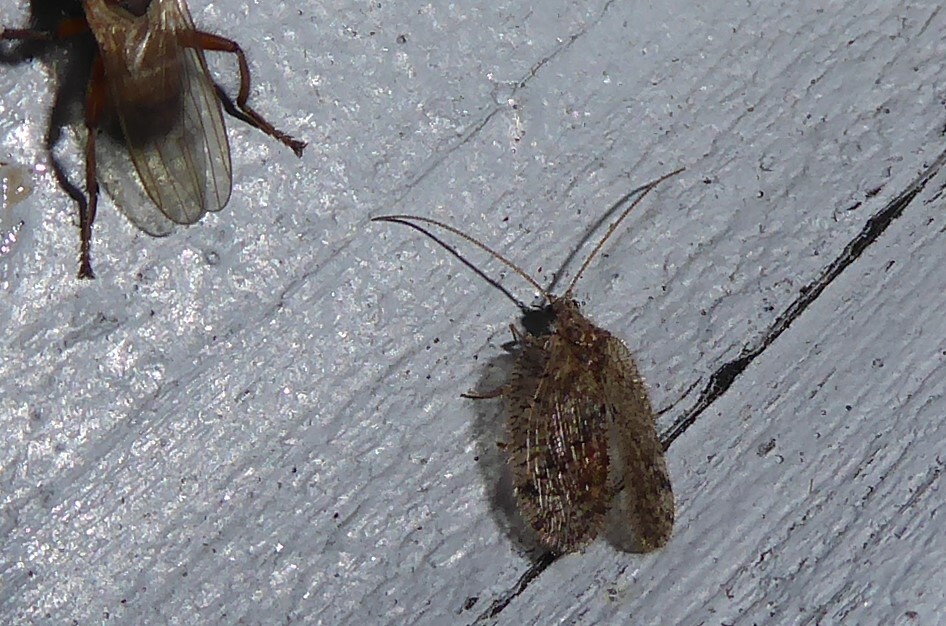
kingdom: Animalia
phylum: Arthropoda
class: Insecta
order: Neuroptera
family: Hemerobiidae
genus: Psectra
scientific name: Psectra nakaharai
